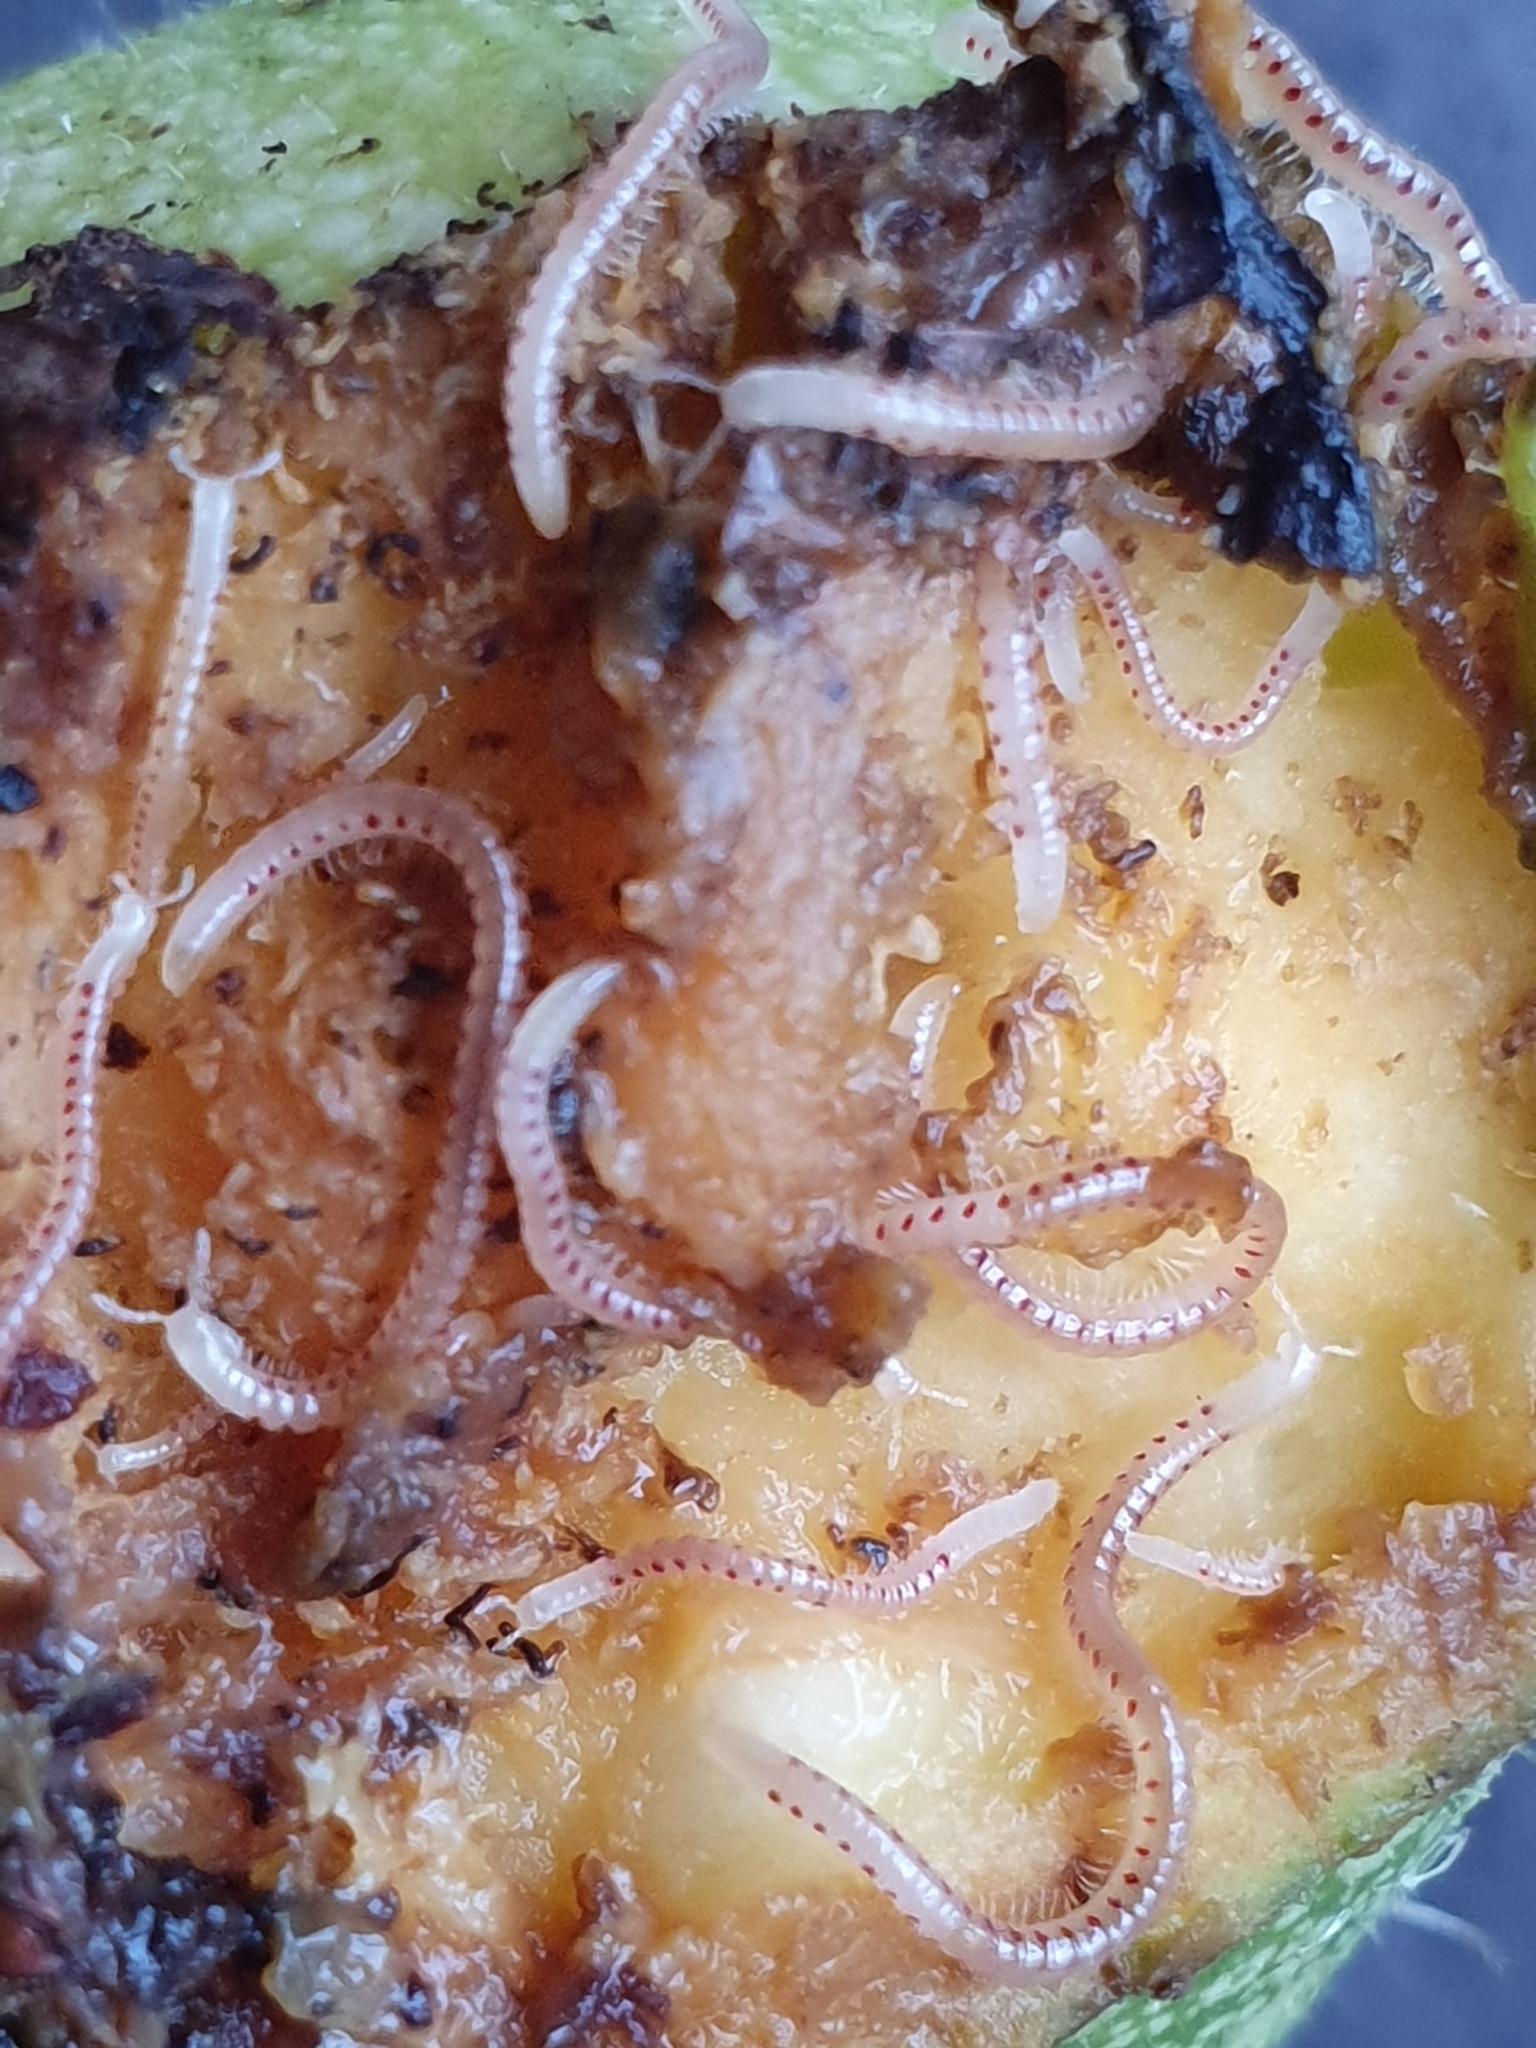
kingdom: Animalia
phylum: Arthropoda
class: Diplopoda
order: Julida
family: Blaniulidae
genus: Blaniulus
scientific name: Blaniulus guttulatus
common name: Spotted snake millipede
